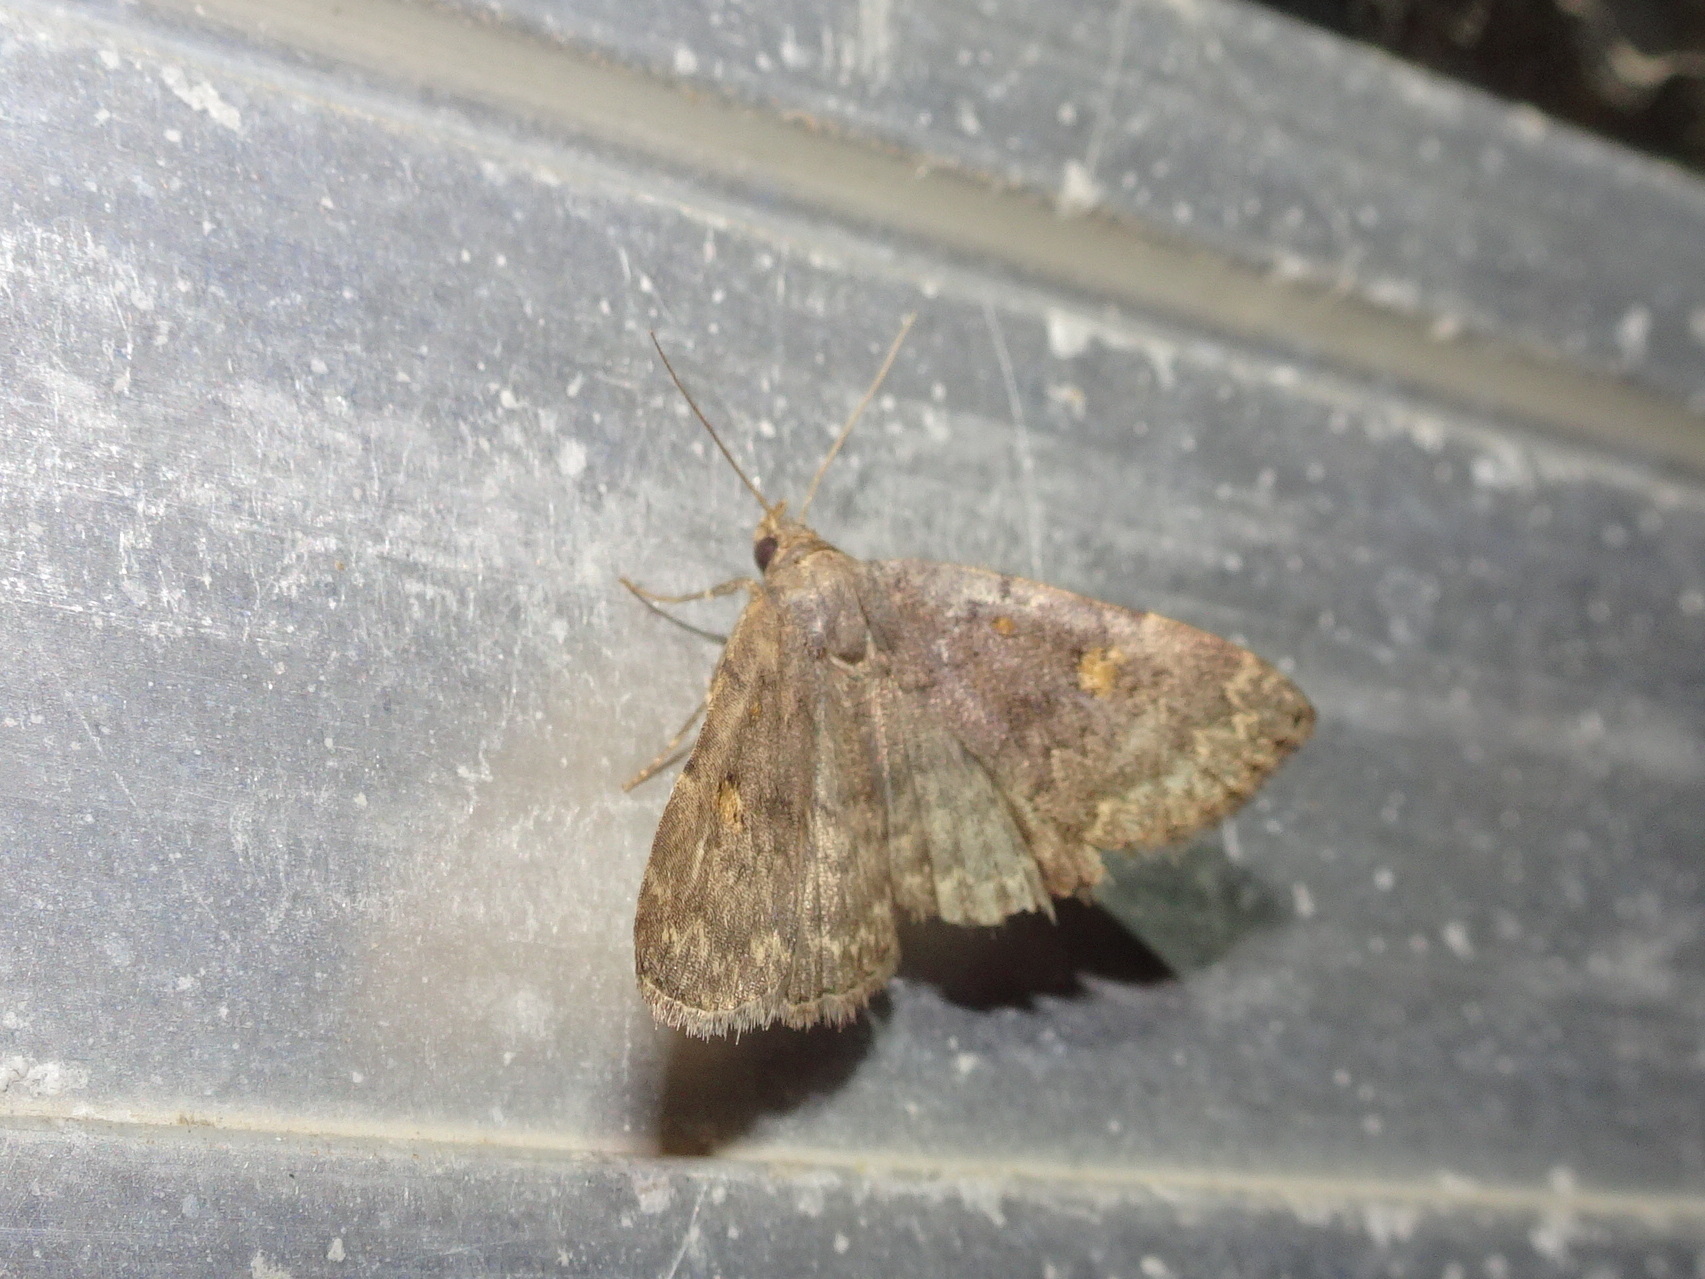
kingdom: Animalia
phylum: Arthropoda
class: Insecta
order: Lepidoptera
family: Erebidae
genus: Idia
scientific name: Idia aemula
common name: Common idia moth
